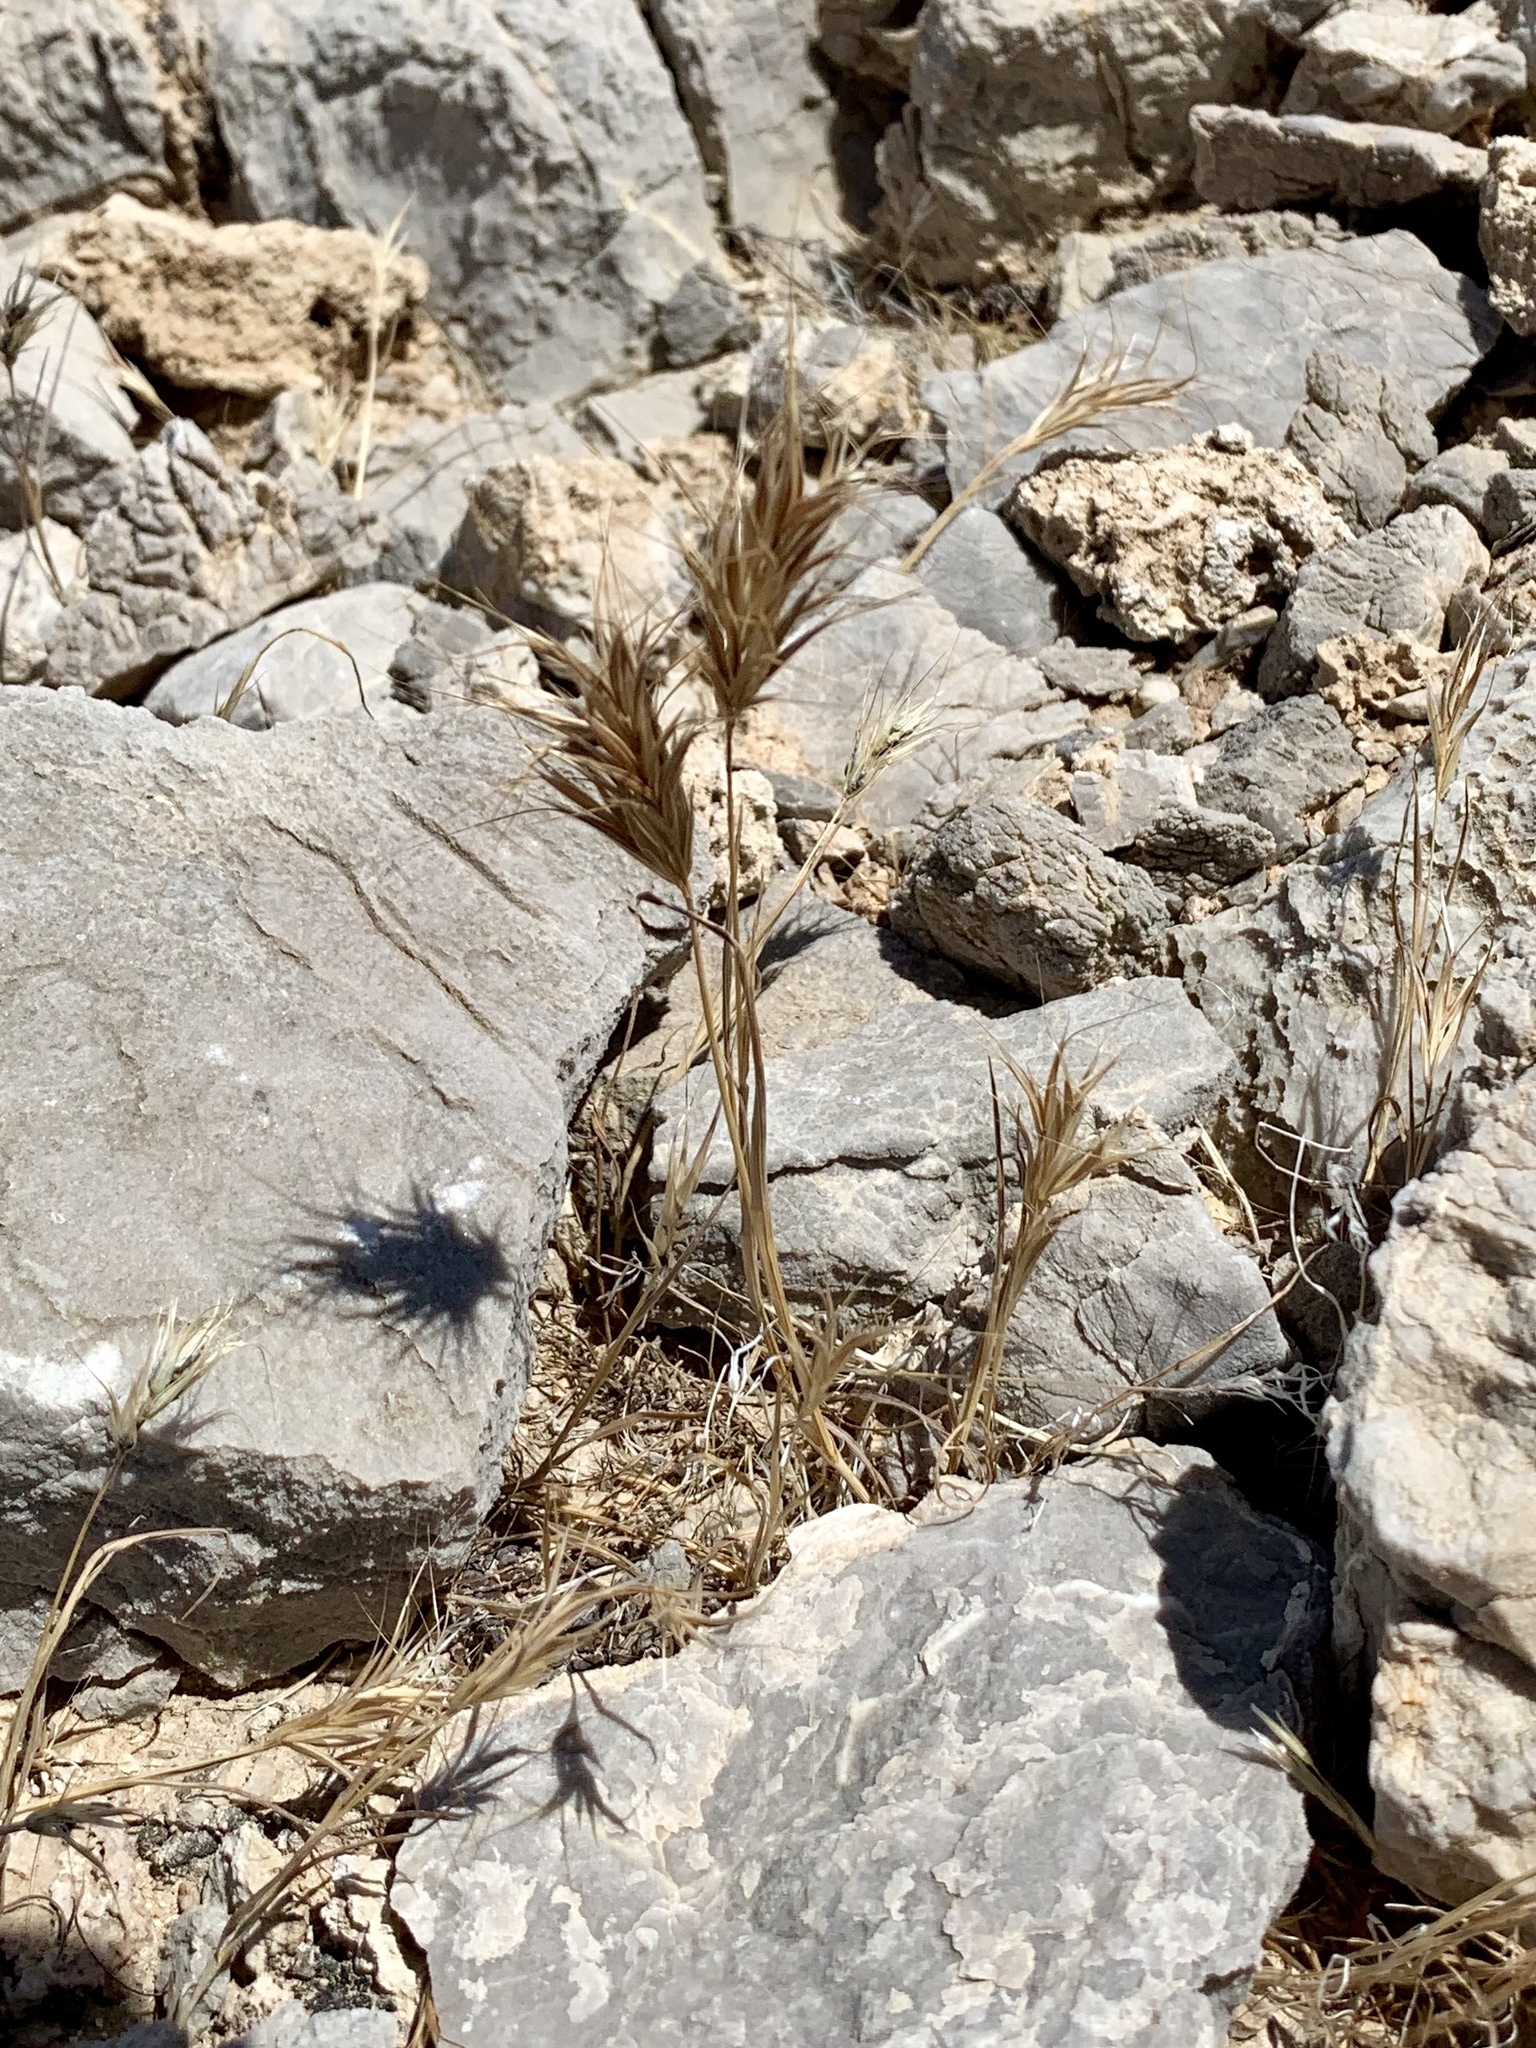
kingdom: Plantae
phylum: Tracheophyta
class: Liliopsida
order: Poales
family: Poaceae
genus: Bromus
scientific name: Bromus rubens
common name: Red brome
